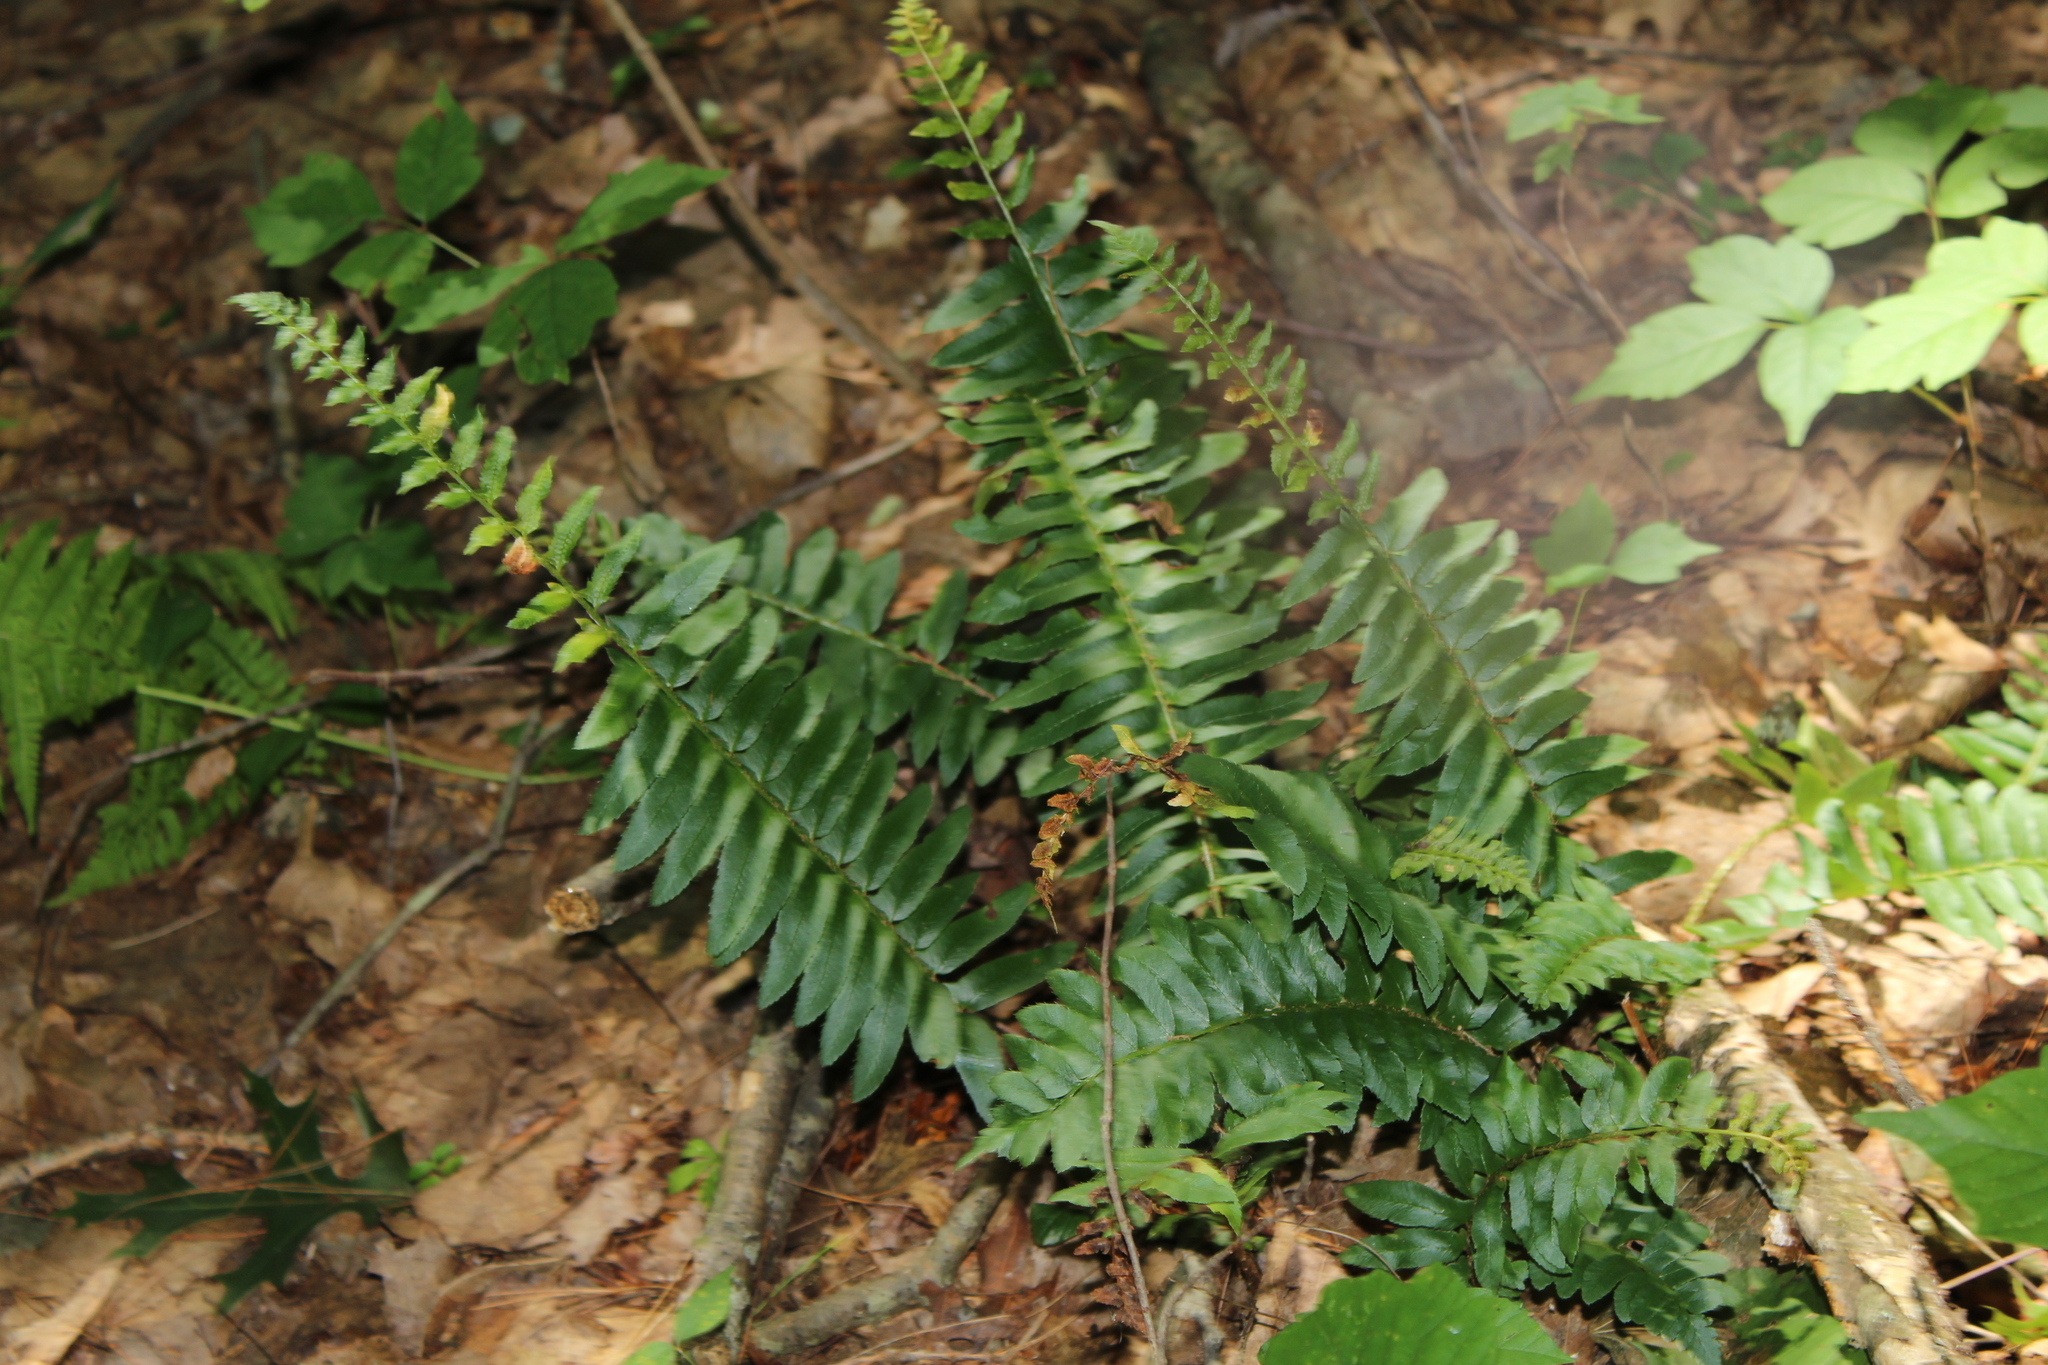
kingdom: Plantae
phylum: Tracheophyta
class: Polypodiopsida
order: Polypodiales
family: Dryopteridaceae
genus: Polystichum
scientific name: Polystichum acrostichoides
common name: Christmas fern
